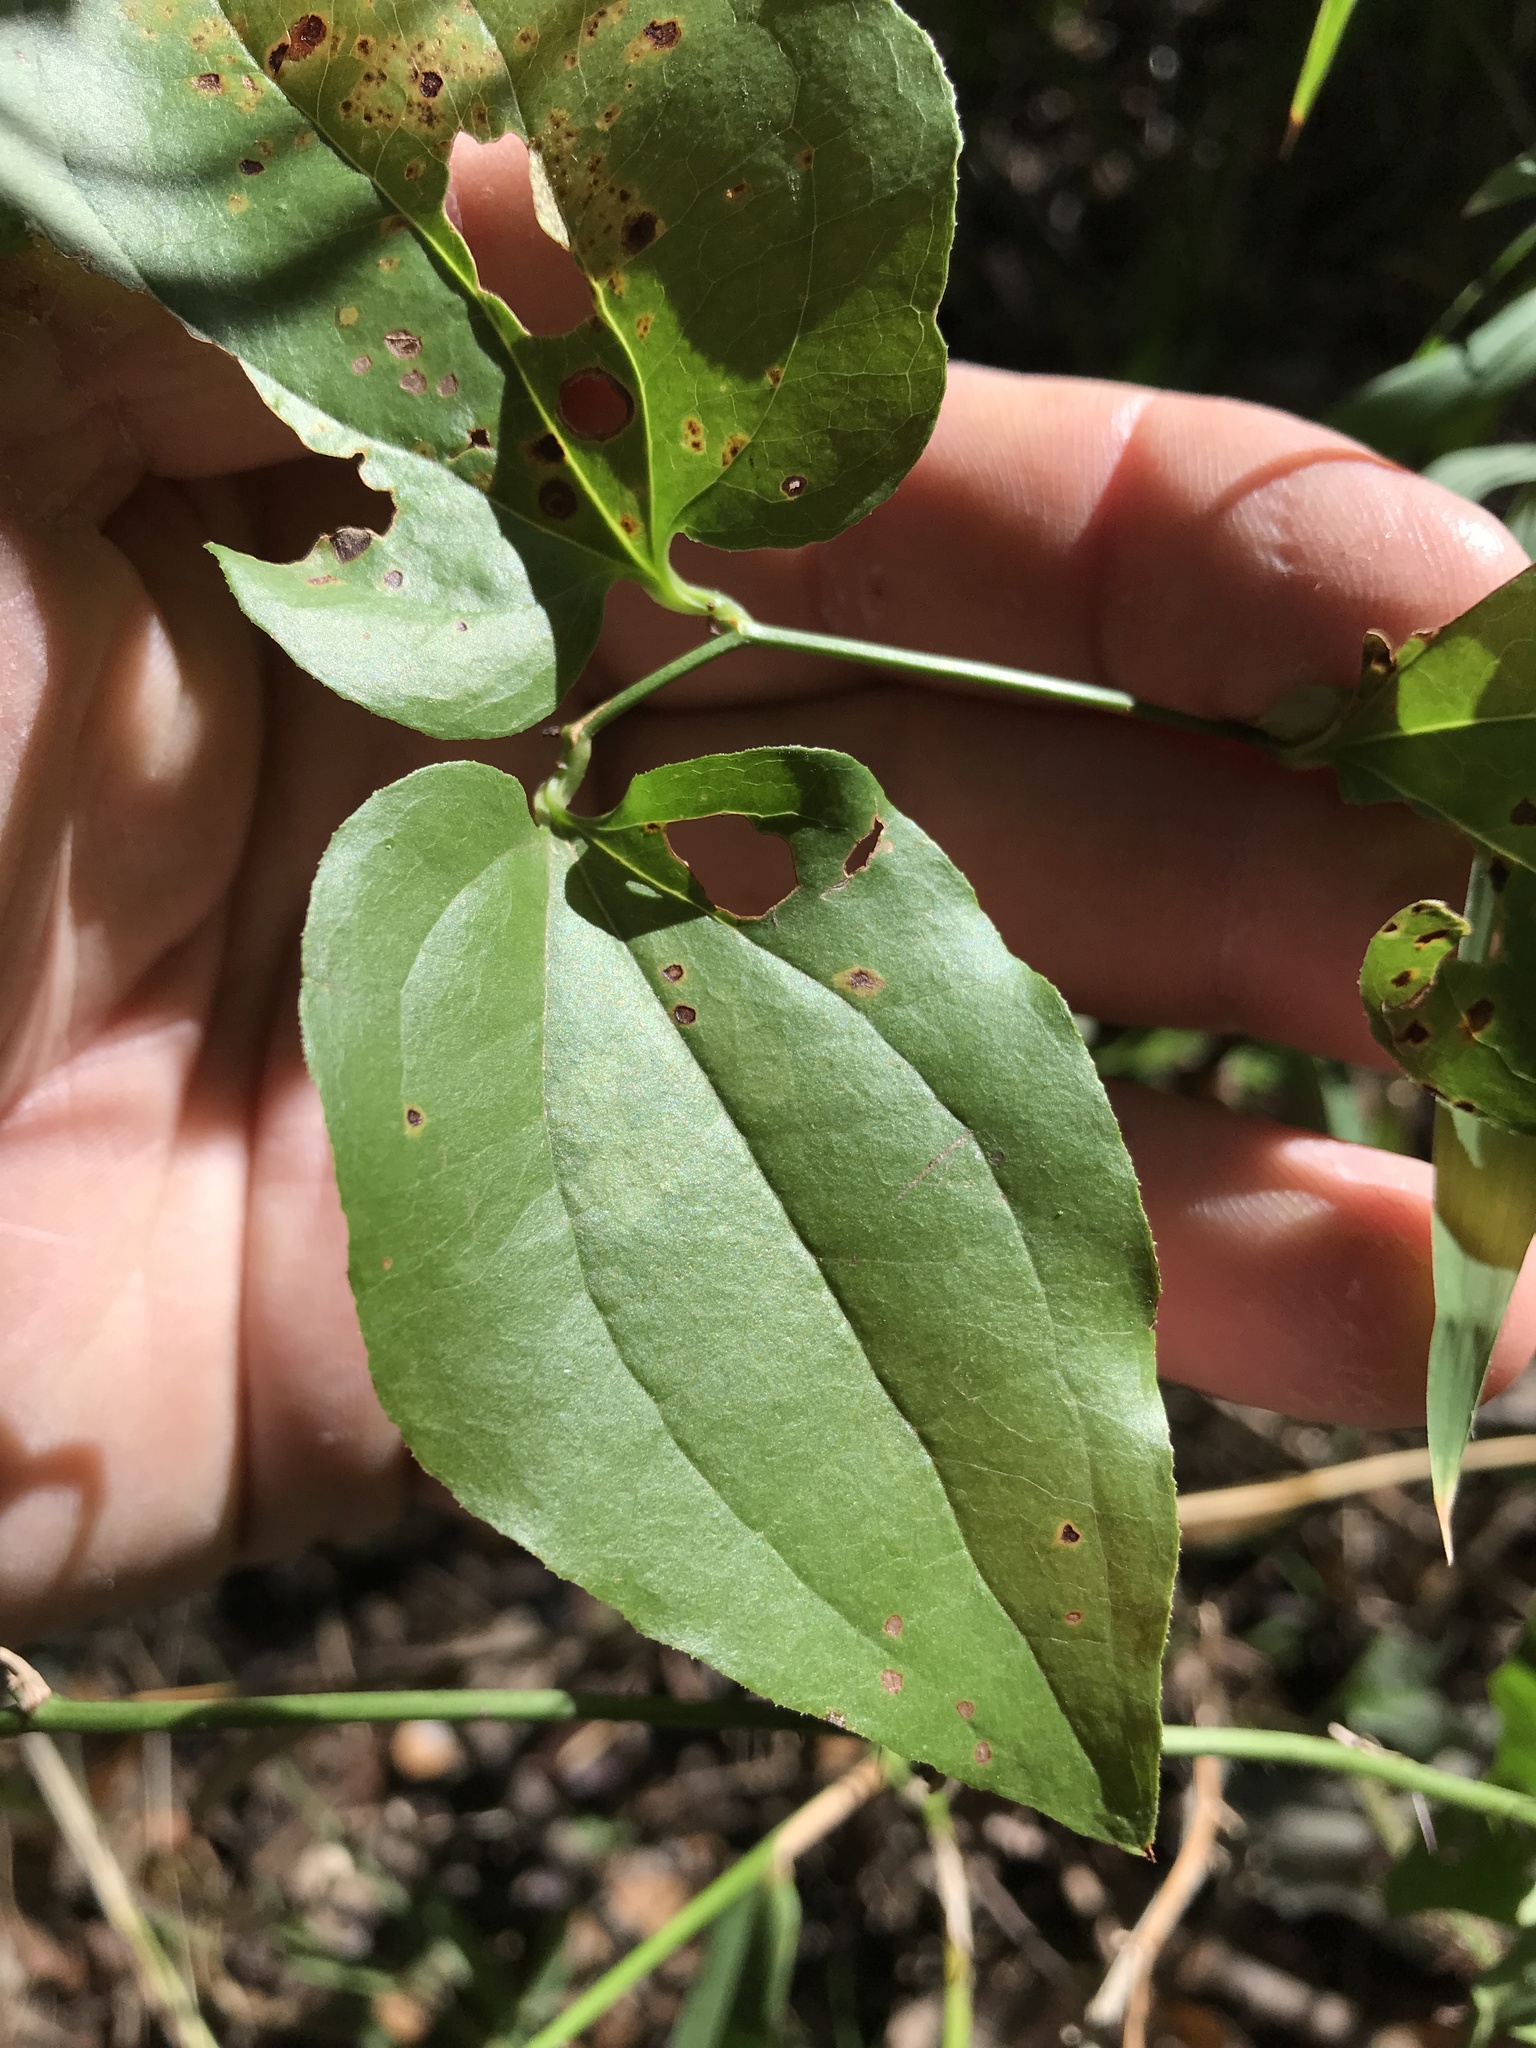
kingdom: Plantae
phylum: Tracheophyta
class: Liliopsida
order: Liliales
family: Smilacaceae
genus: Smilax
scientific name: Smilax tamnoides
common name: Hellfetter
